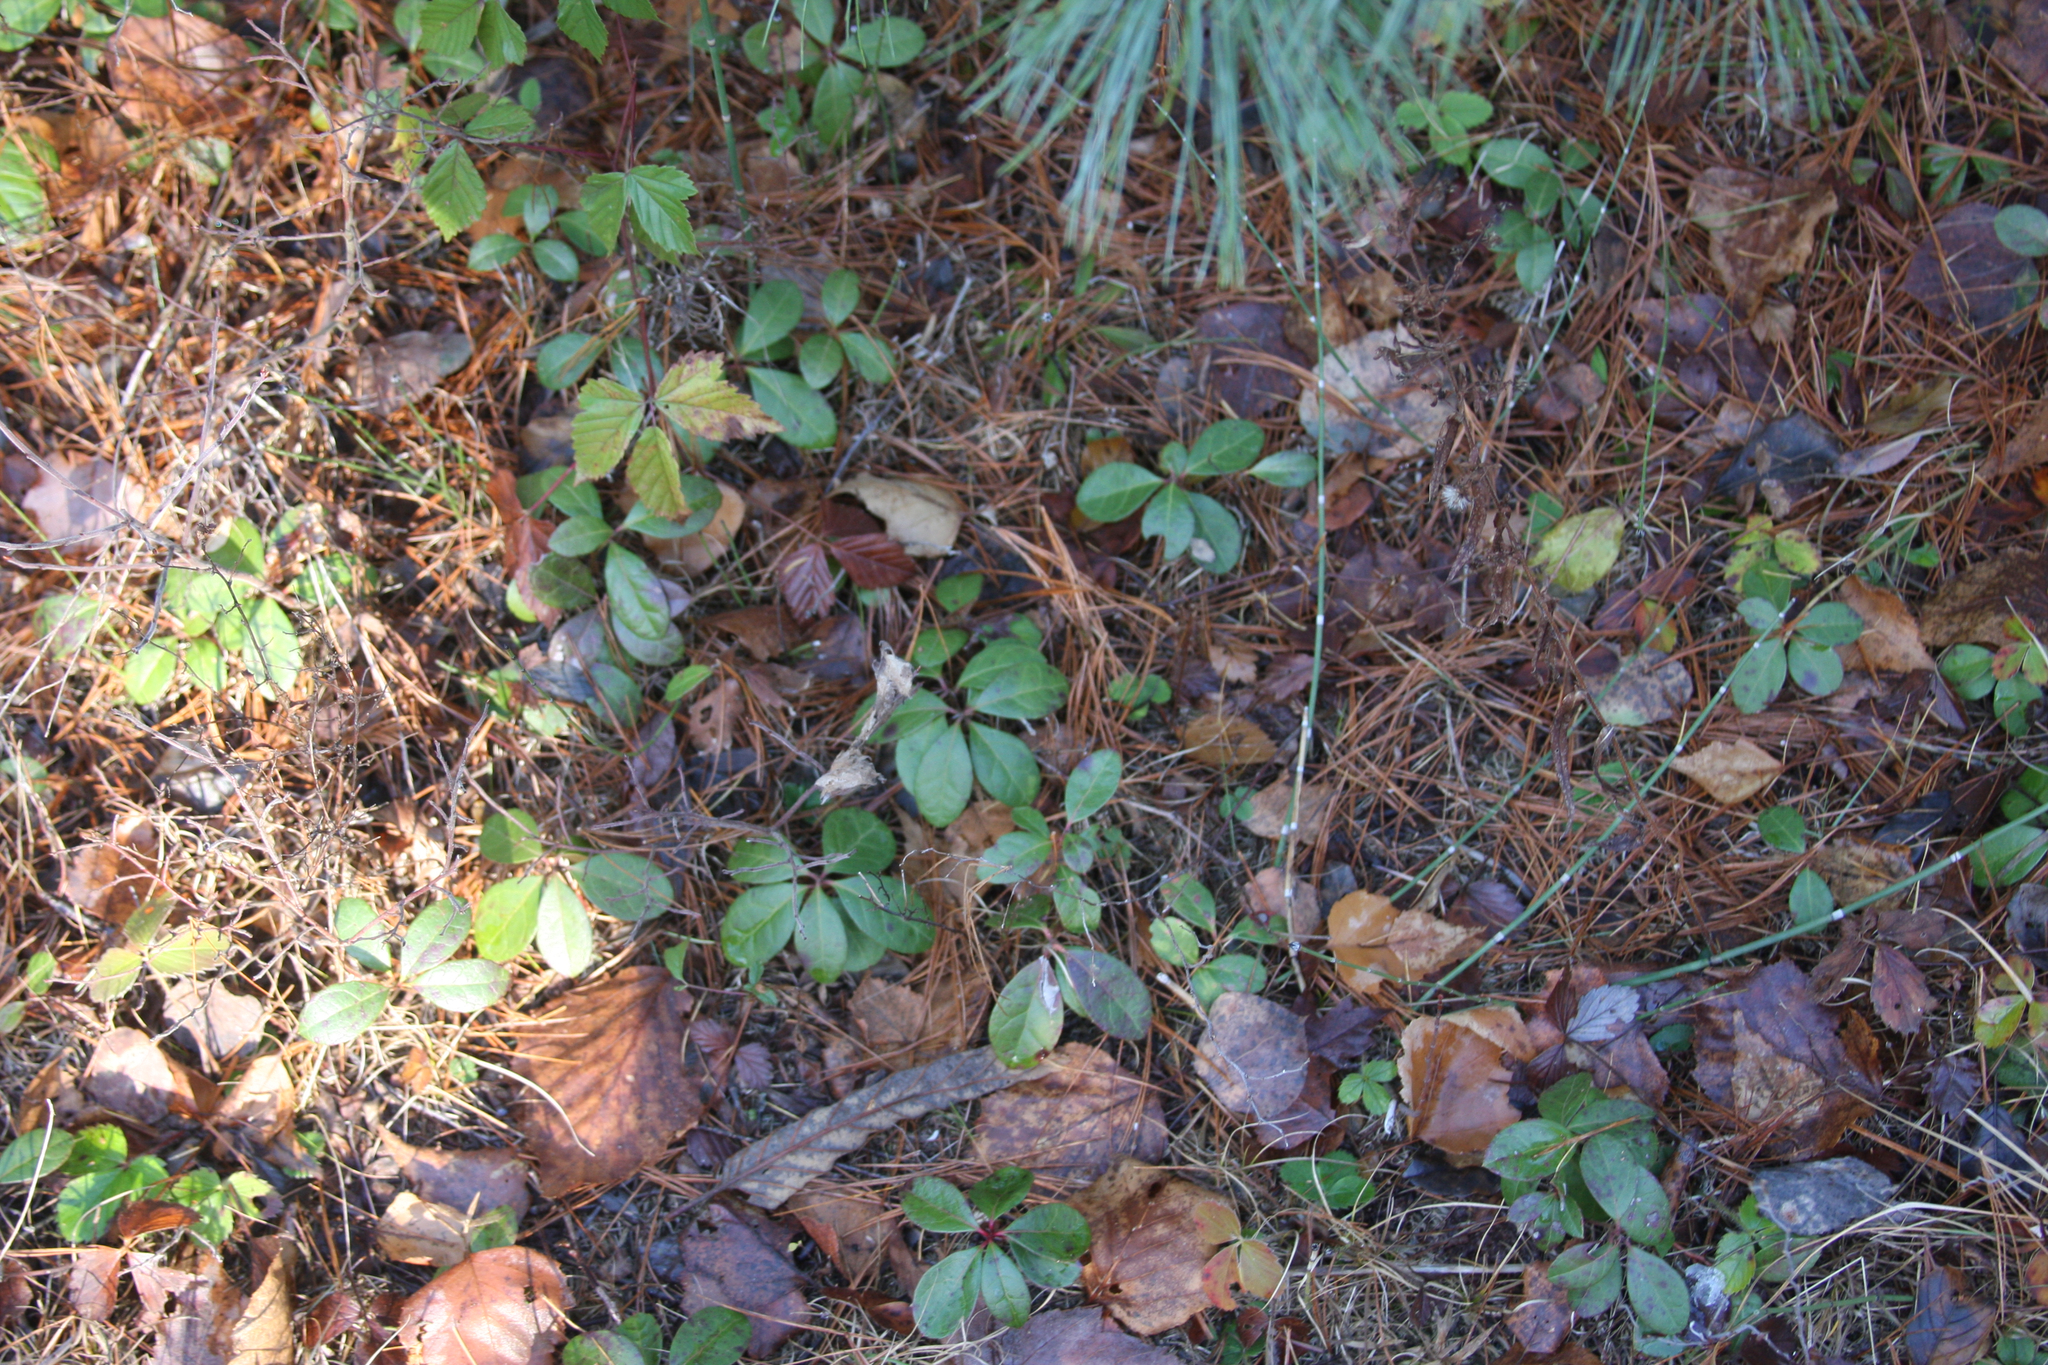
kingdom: Plantae
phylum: Tracheophyta
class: Magnoliopsida
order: Ericales
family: Ericaceae
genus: Gaultheria
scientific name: Gaultheria procumbens
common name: Checkerberry
